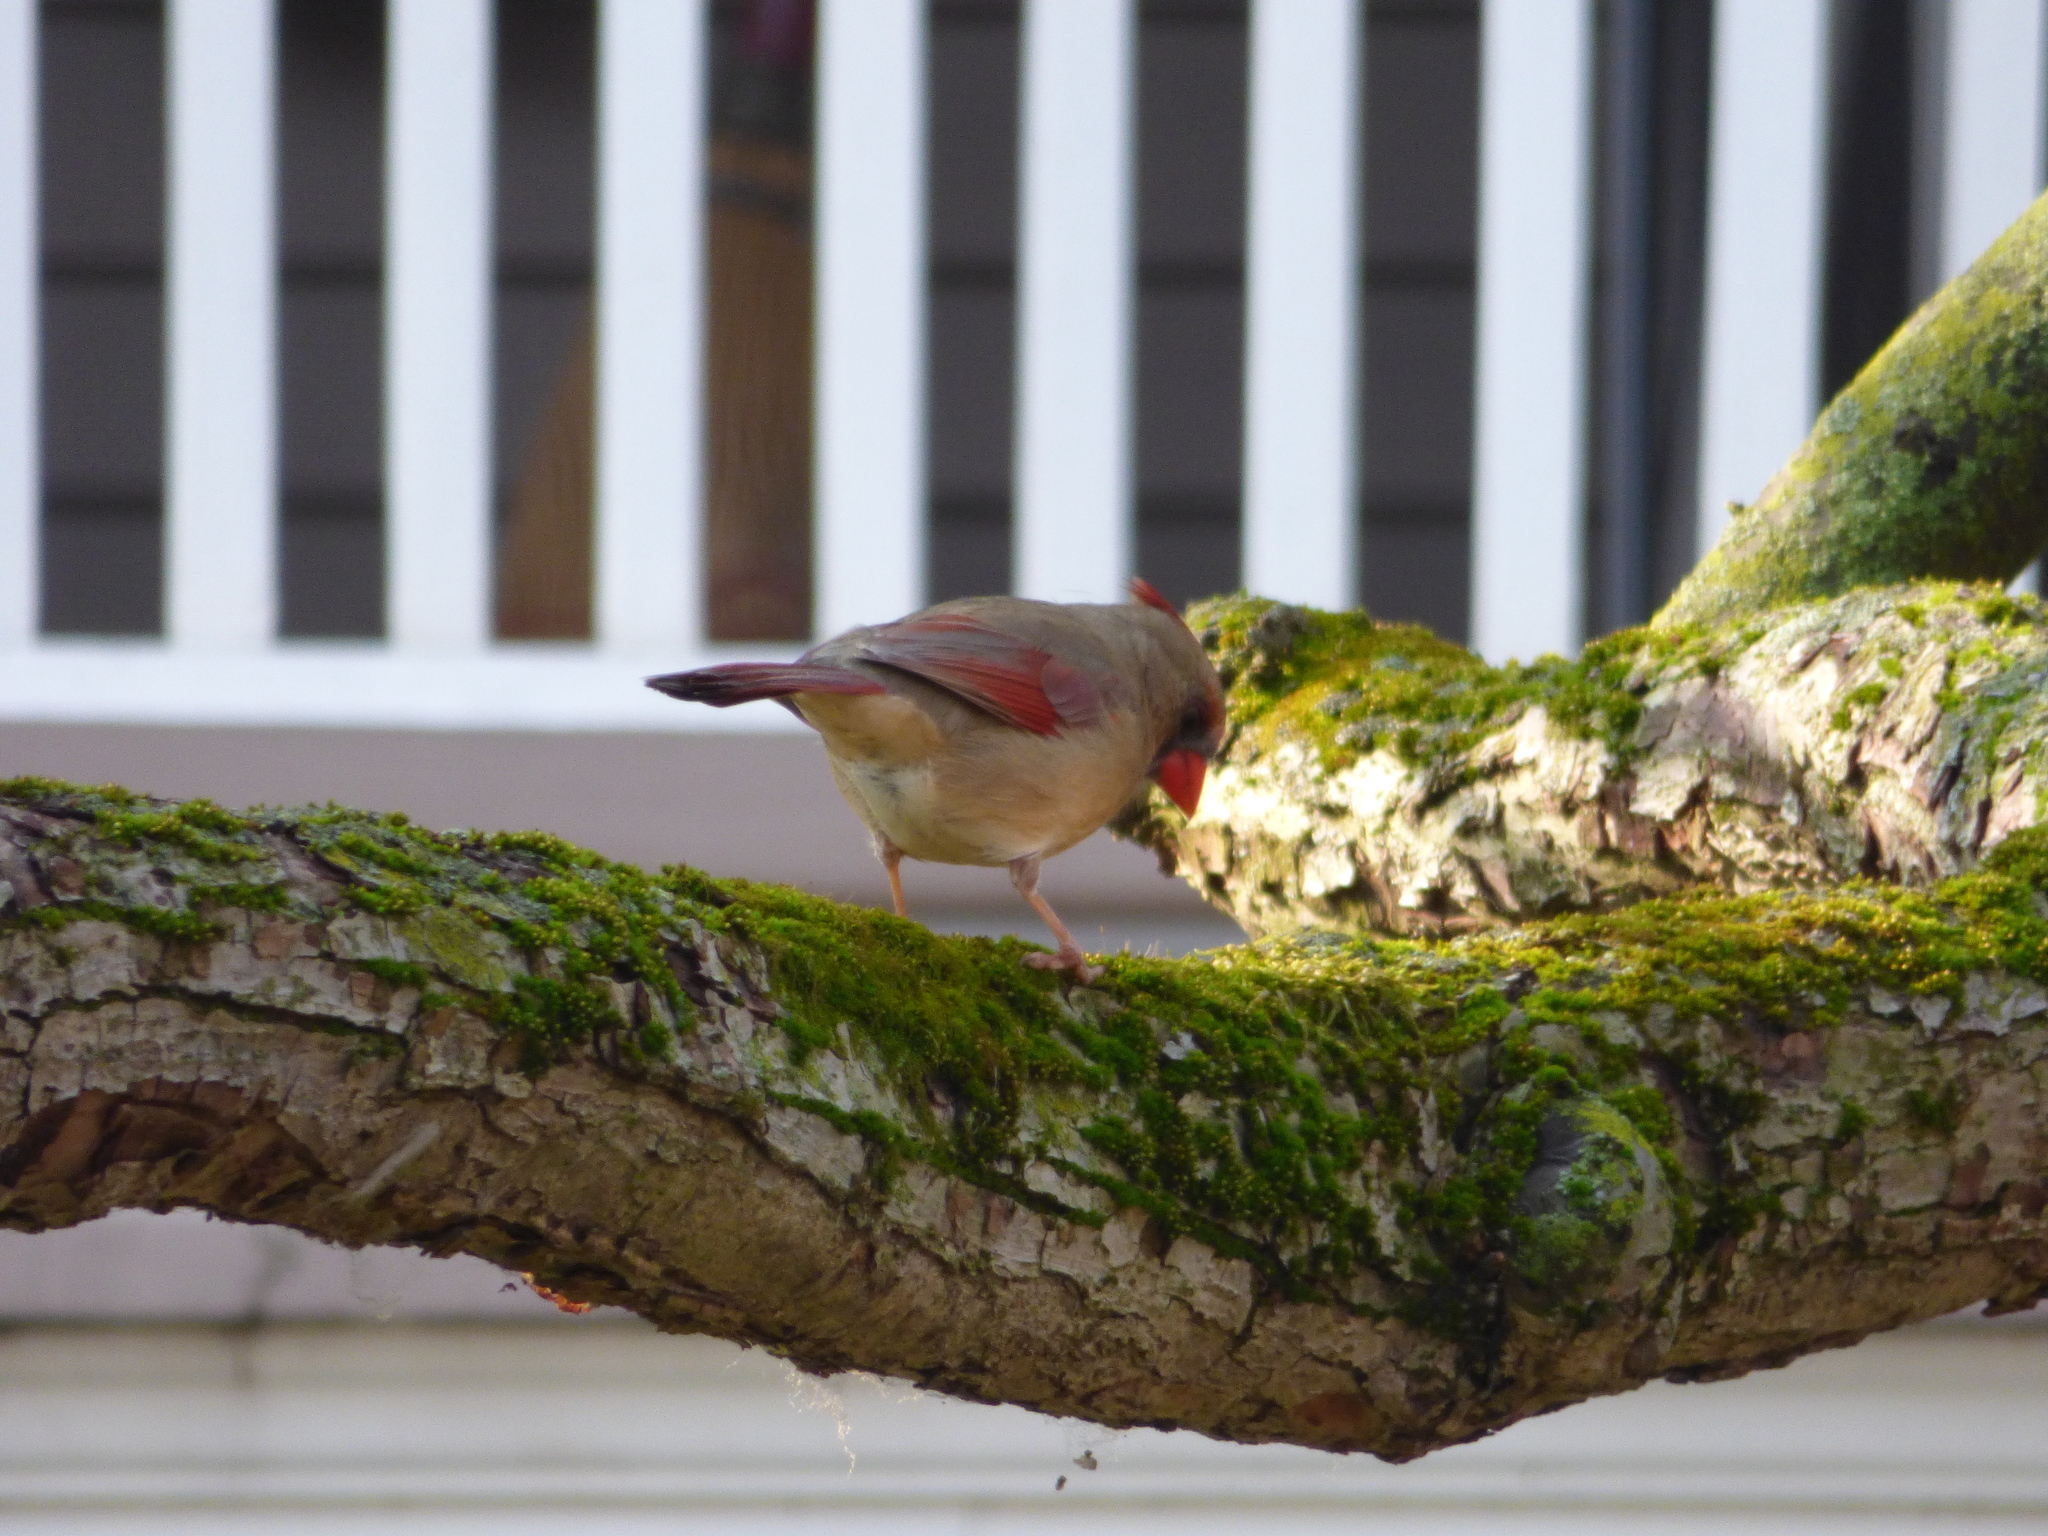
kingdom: Animalia
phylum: Chordata
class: Aves
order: Passeriformes
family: Cardinalidae
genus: Cardinalis
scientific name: Cardinalis cardinalis
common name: Northern cardinal
